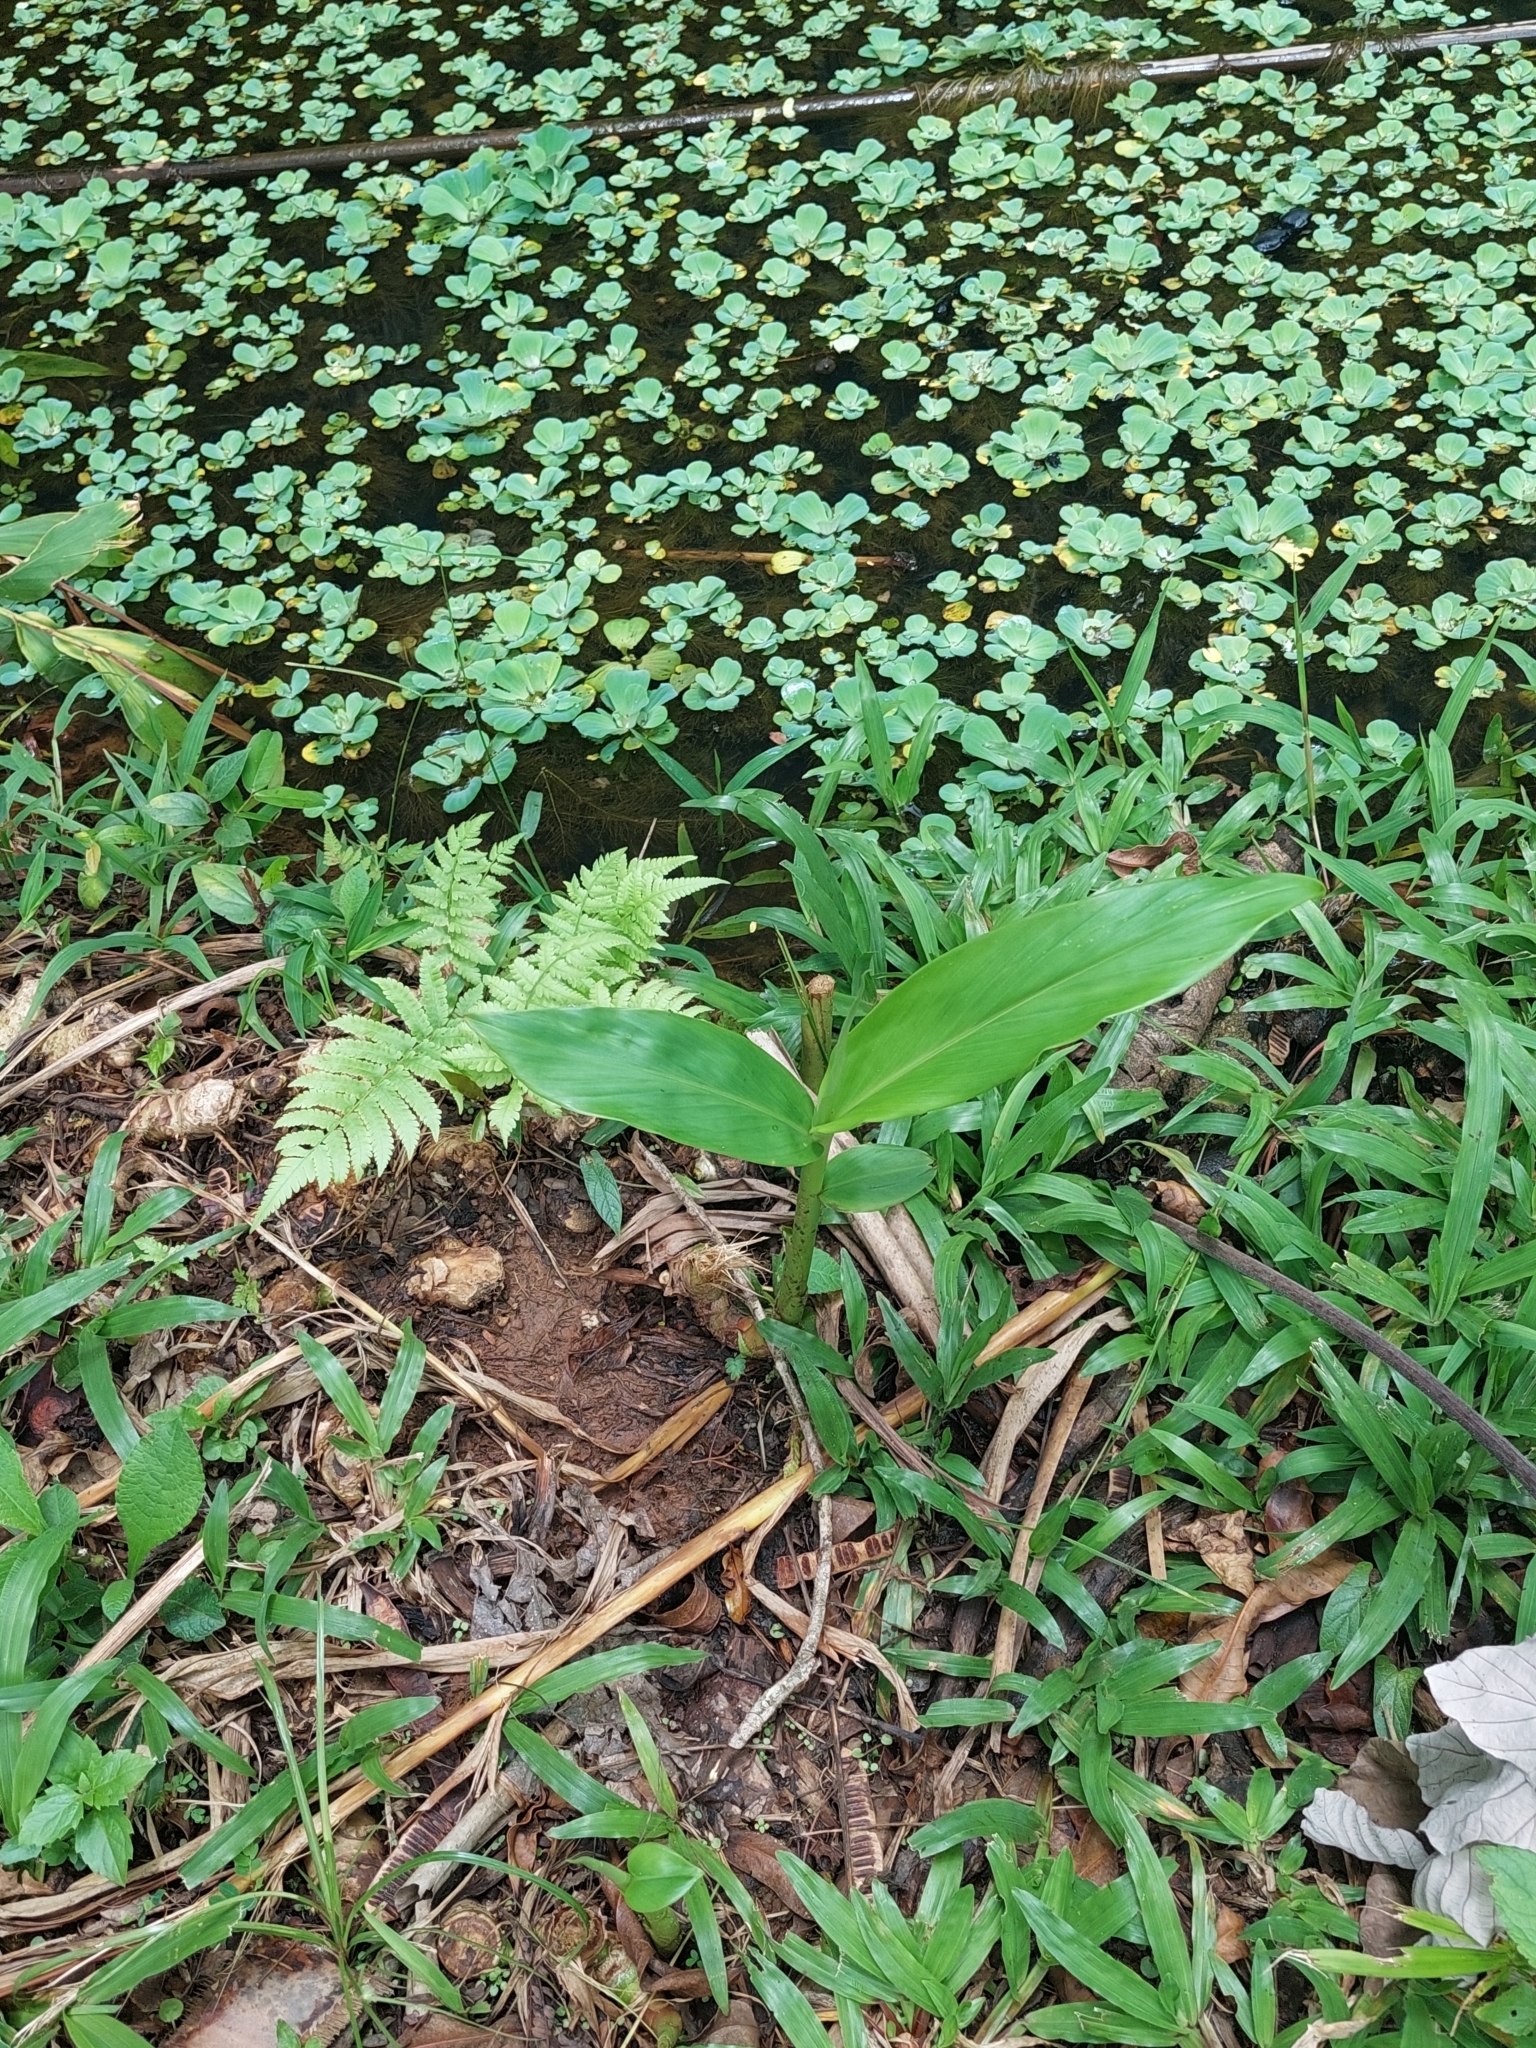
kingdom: Plantae
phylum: Tracheophyta
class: Liliopsida
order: Zingiberales
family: Zingiberaceae
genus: Hedychium
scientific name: Hedychium coronarium
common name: White garland-lily
